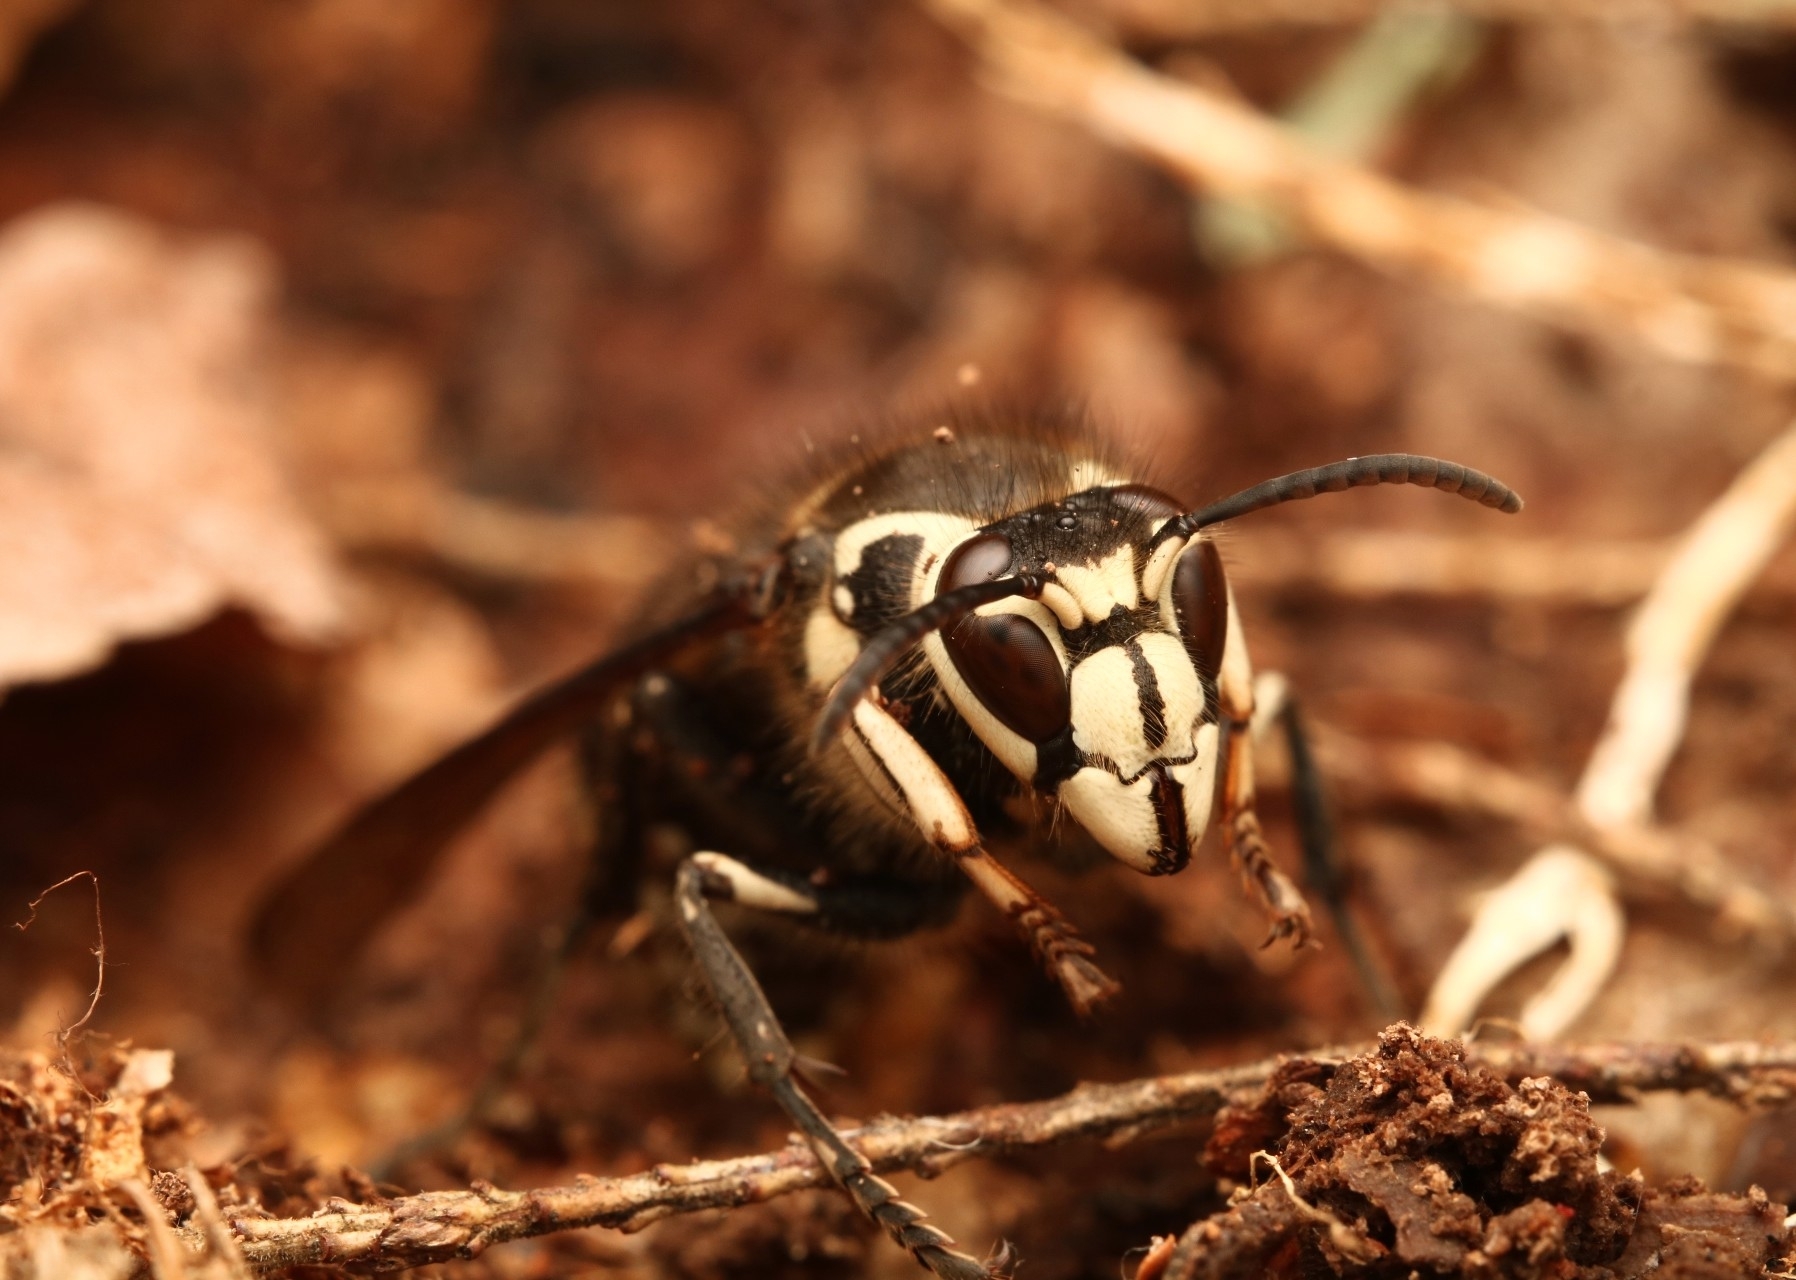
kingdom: Animalia
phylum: Arthropoda
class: Insecta
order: Hymenoptera
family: Vespidae
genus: Dolichovespula
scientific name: Dolichovespula maculata
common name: Bald-faced hornet
